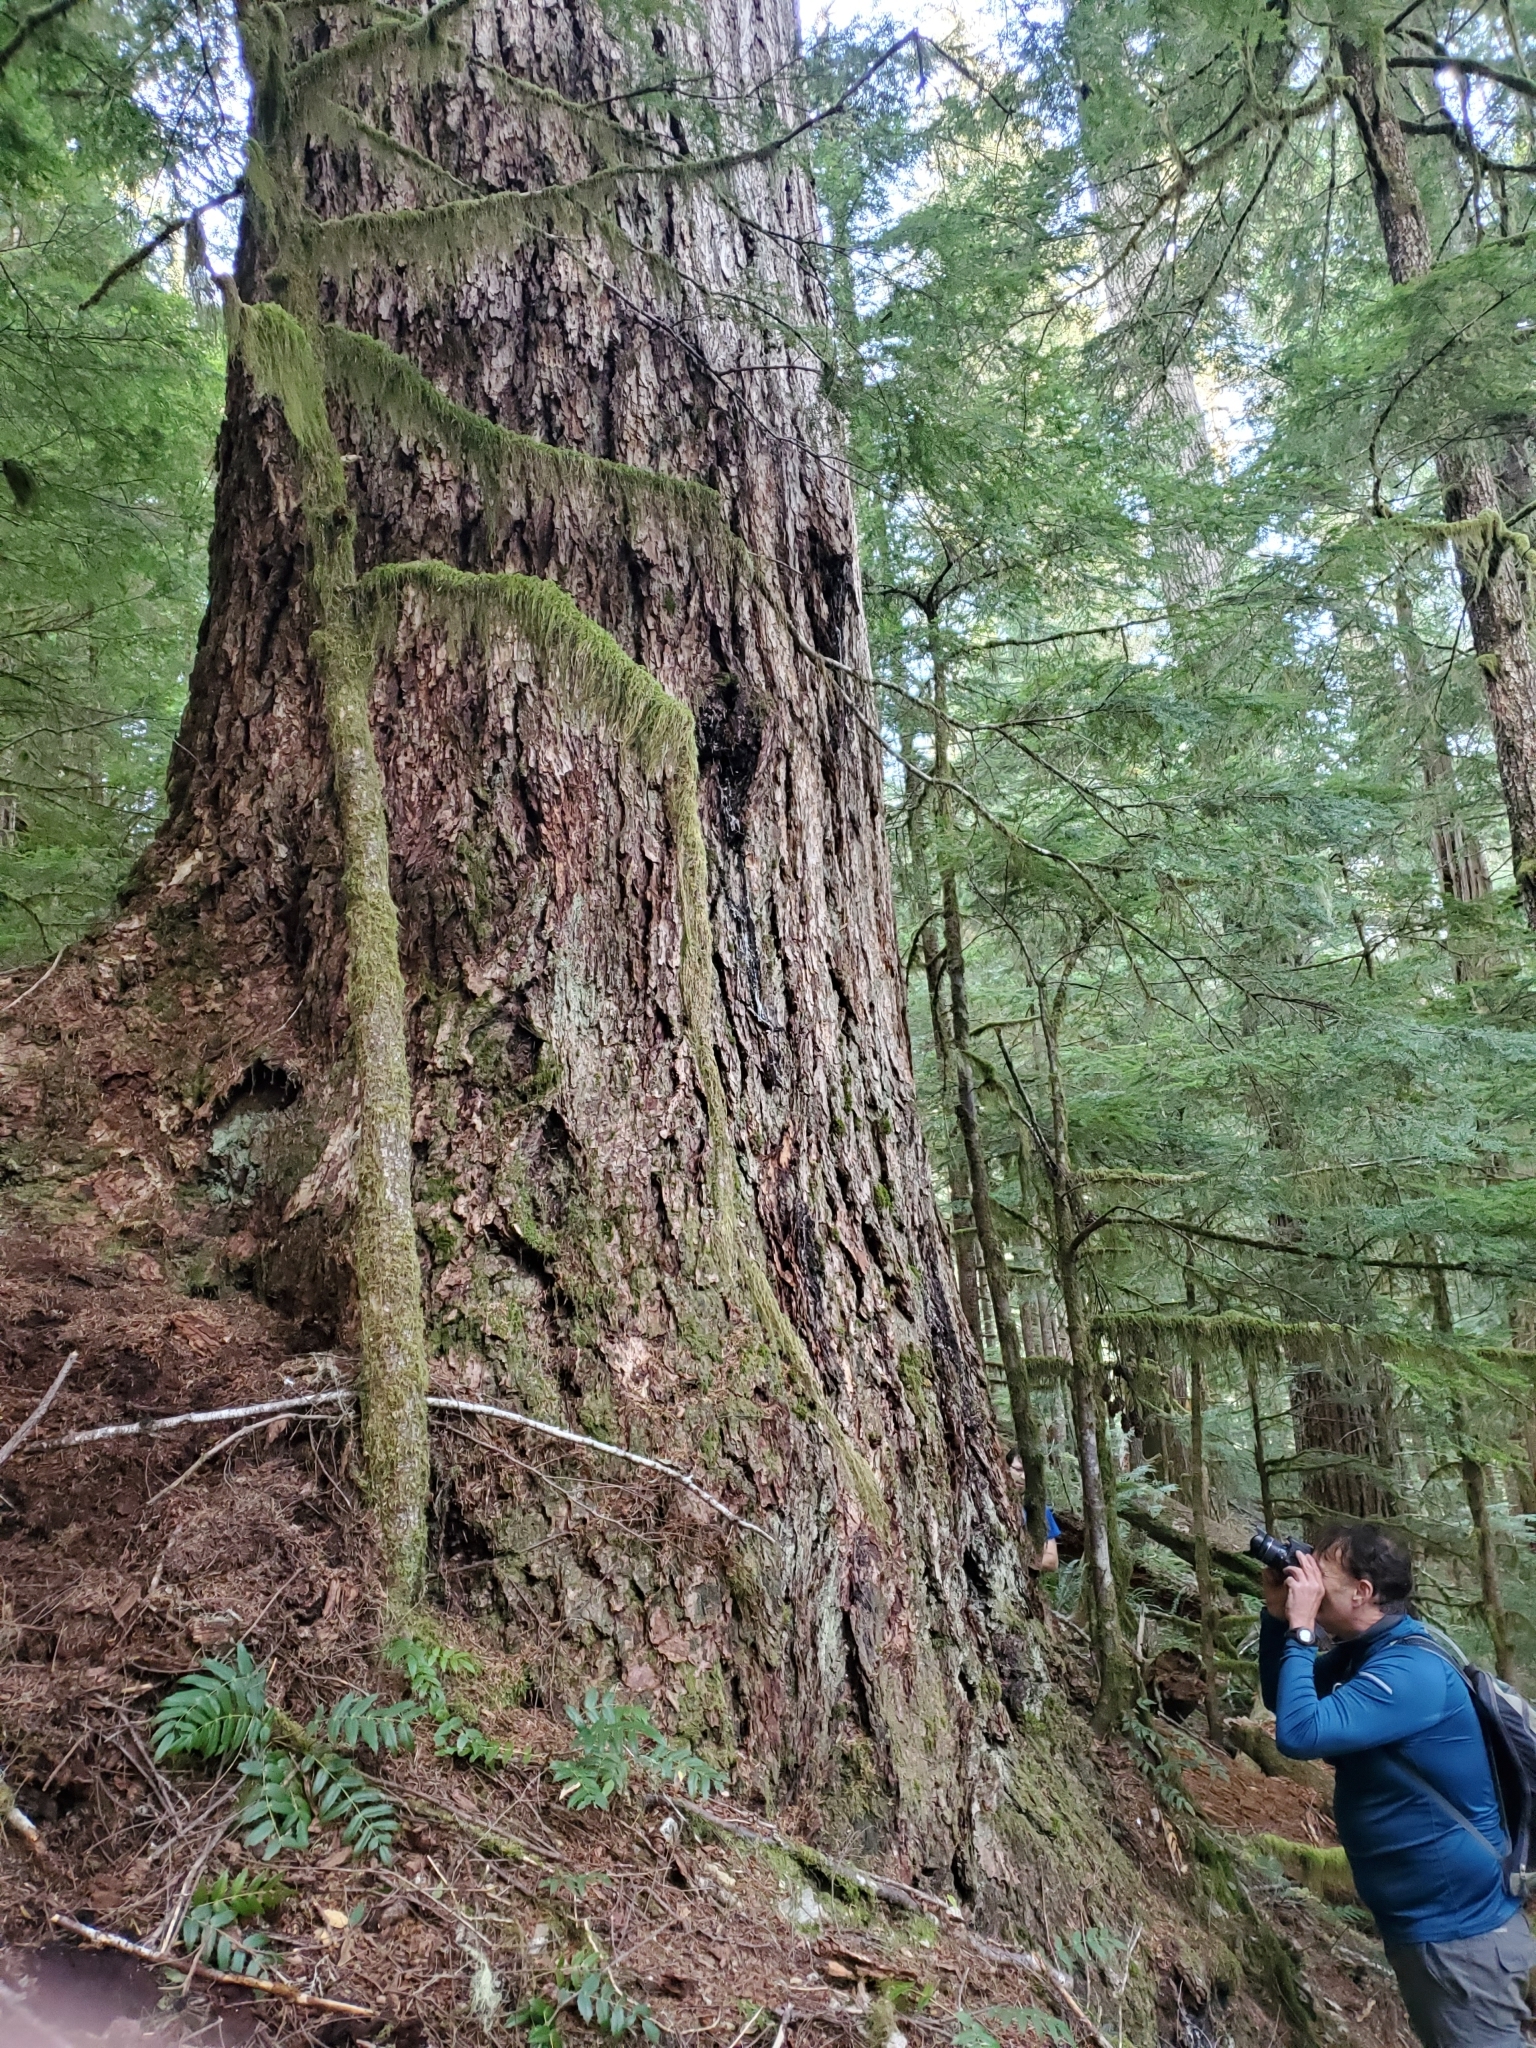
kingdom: Plantae
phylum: Tracheophyta
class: Pinopsida
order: Pinales
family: Pinaceae
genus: Pseudotsuga
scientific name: Pseudotsuga menziesii
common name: Douglas fir
